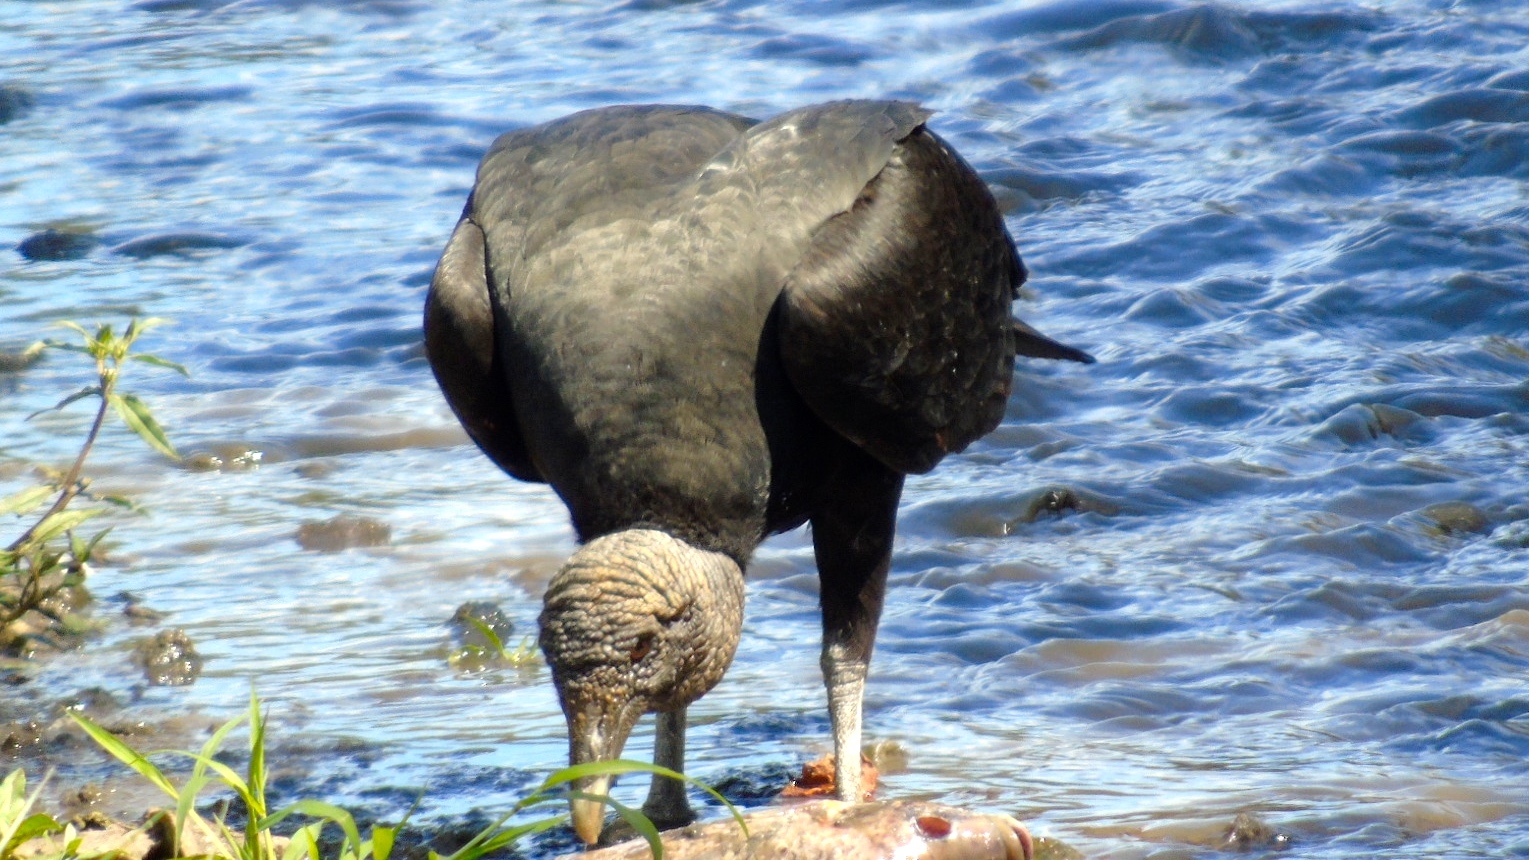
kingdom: Animalia
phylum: Chordata
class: Aves
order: Accipitriformes
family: Cathartidae
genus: Coragyps
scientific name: Coragyps atratus
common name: Black vulture
